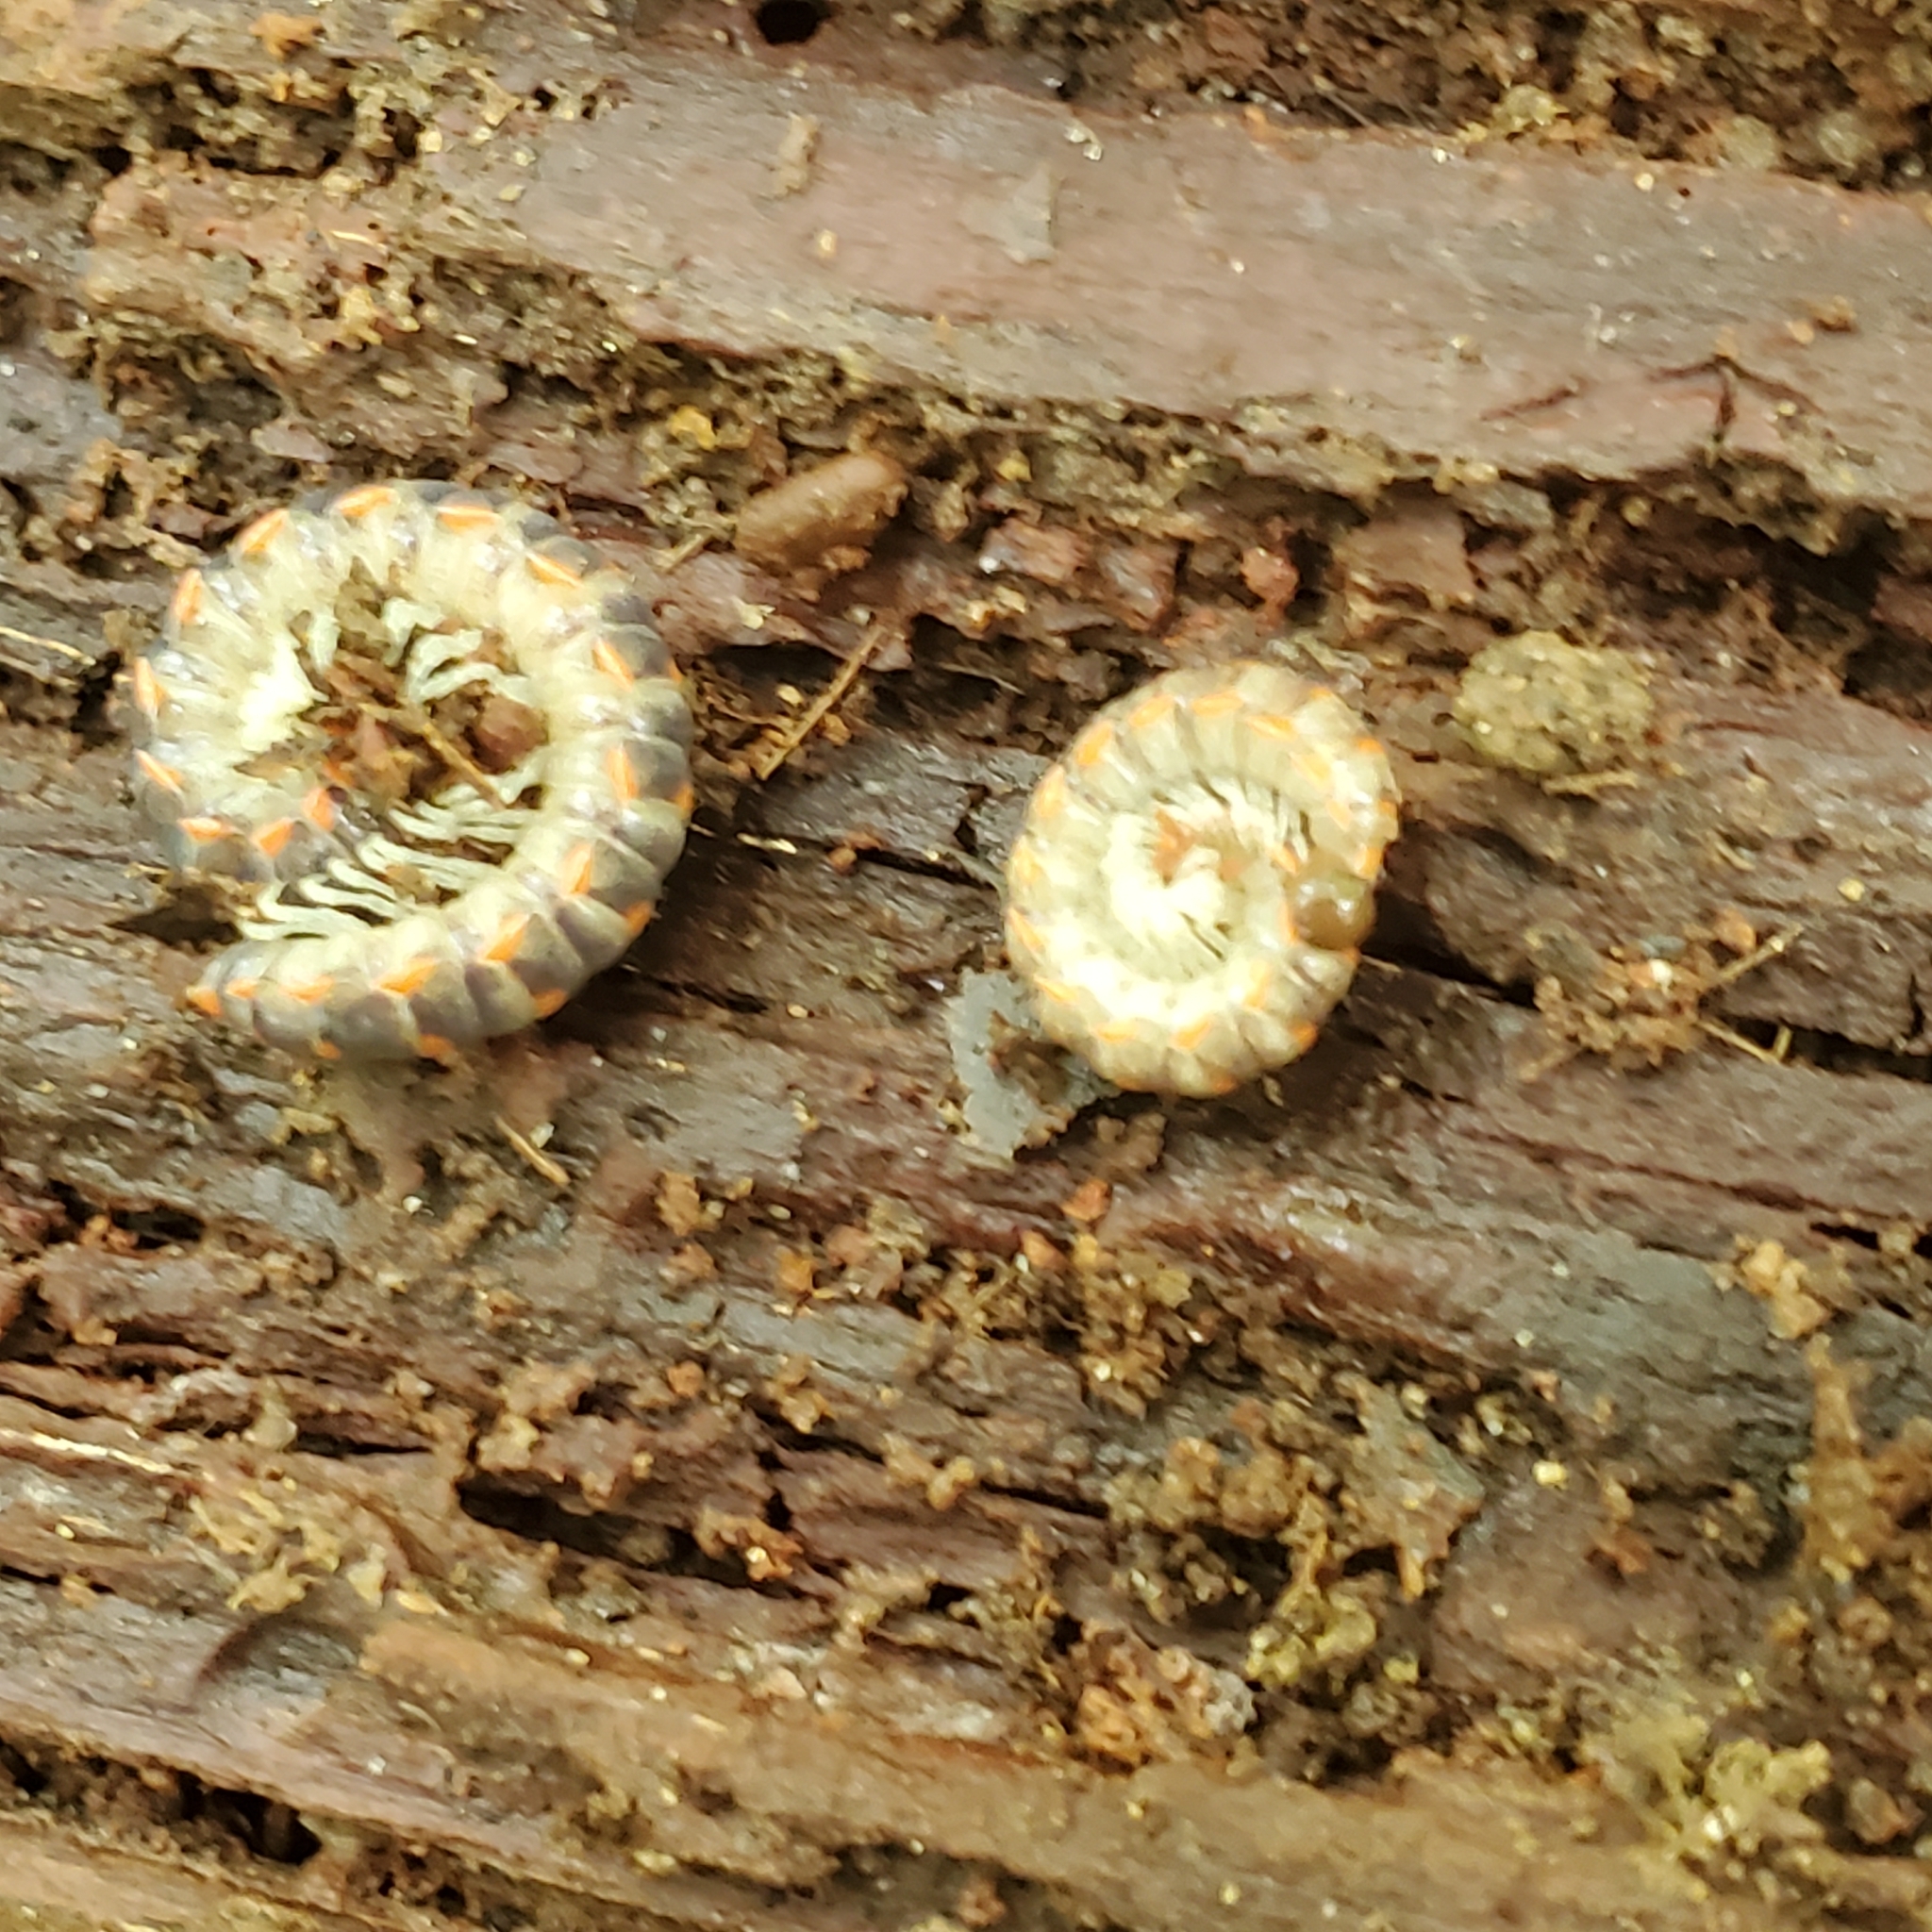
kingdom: Animalia
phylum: Arthropoda
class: Diplopoda
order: Polydesmida
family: Xystodesmidae
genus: Euryurus
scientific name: Euryurus leachii
